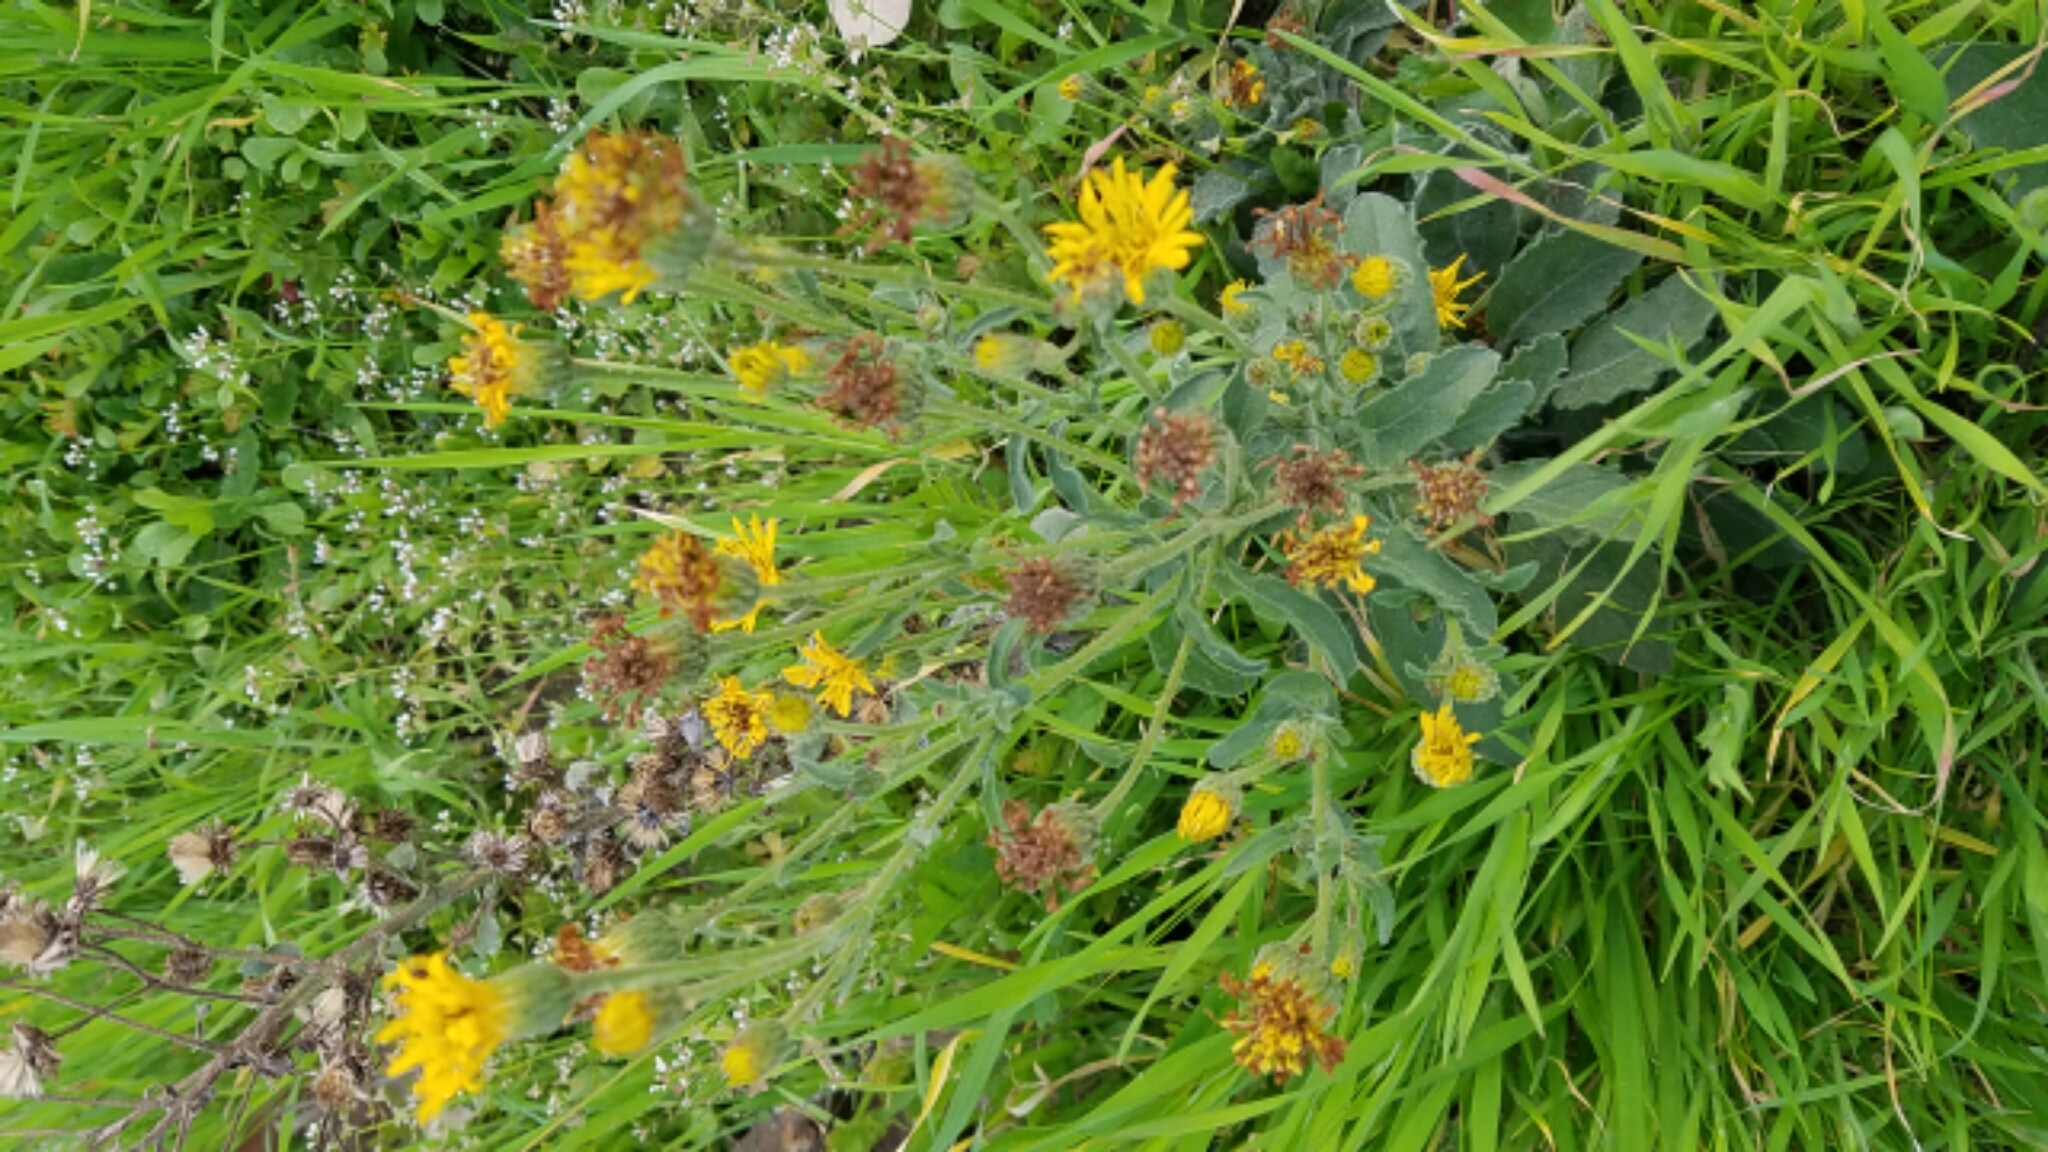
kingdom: Plantae
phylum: Tracheophyta
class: Magnoliopsida
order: Asterales
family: Asteraceae
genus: Heterotheca
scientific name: Heterotheca grandiflora
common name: Telegraphweed
